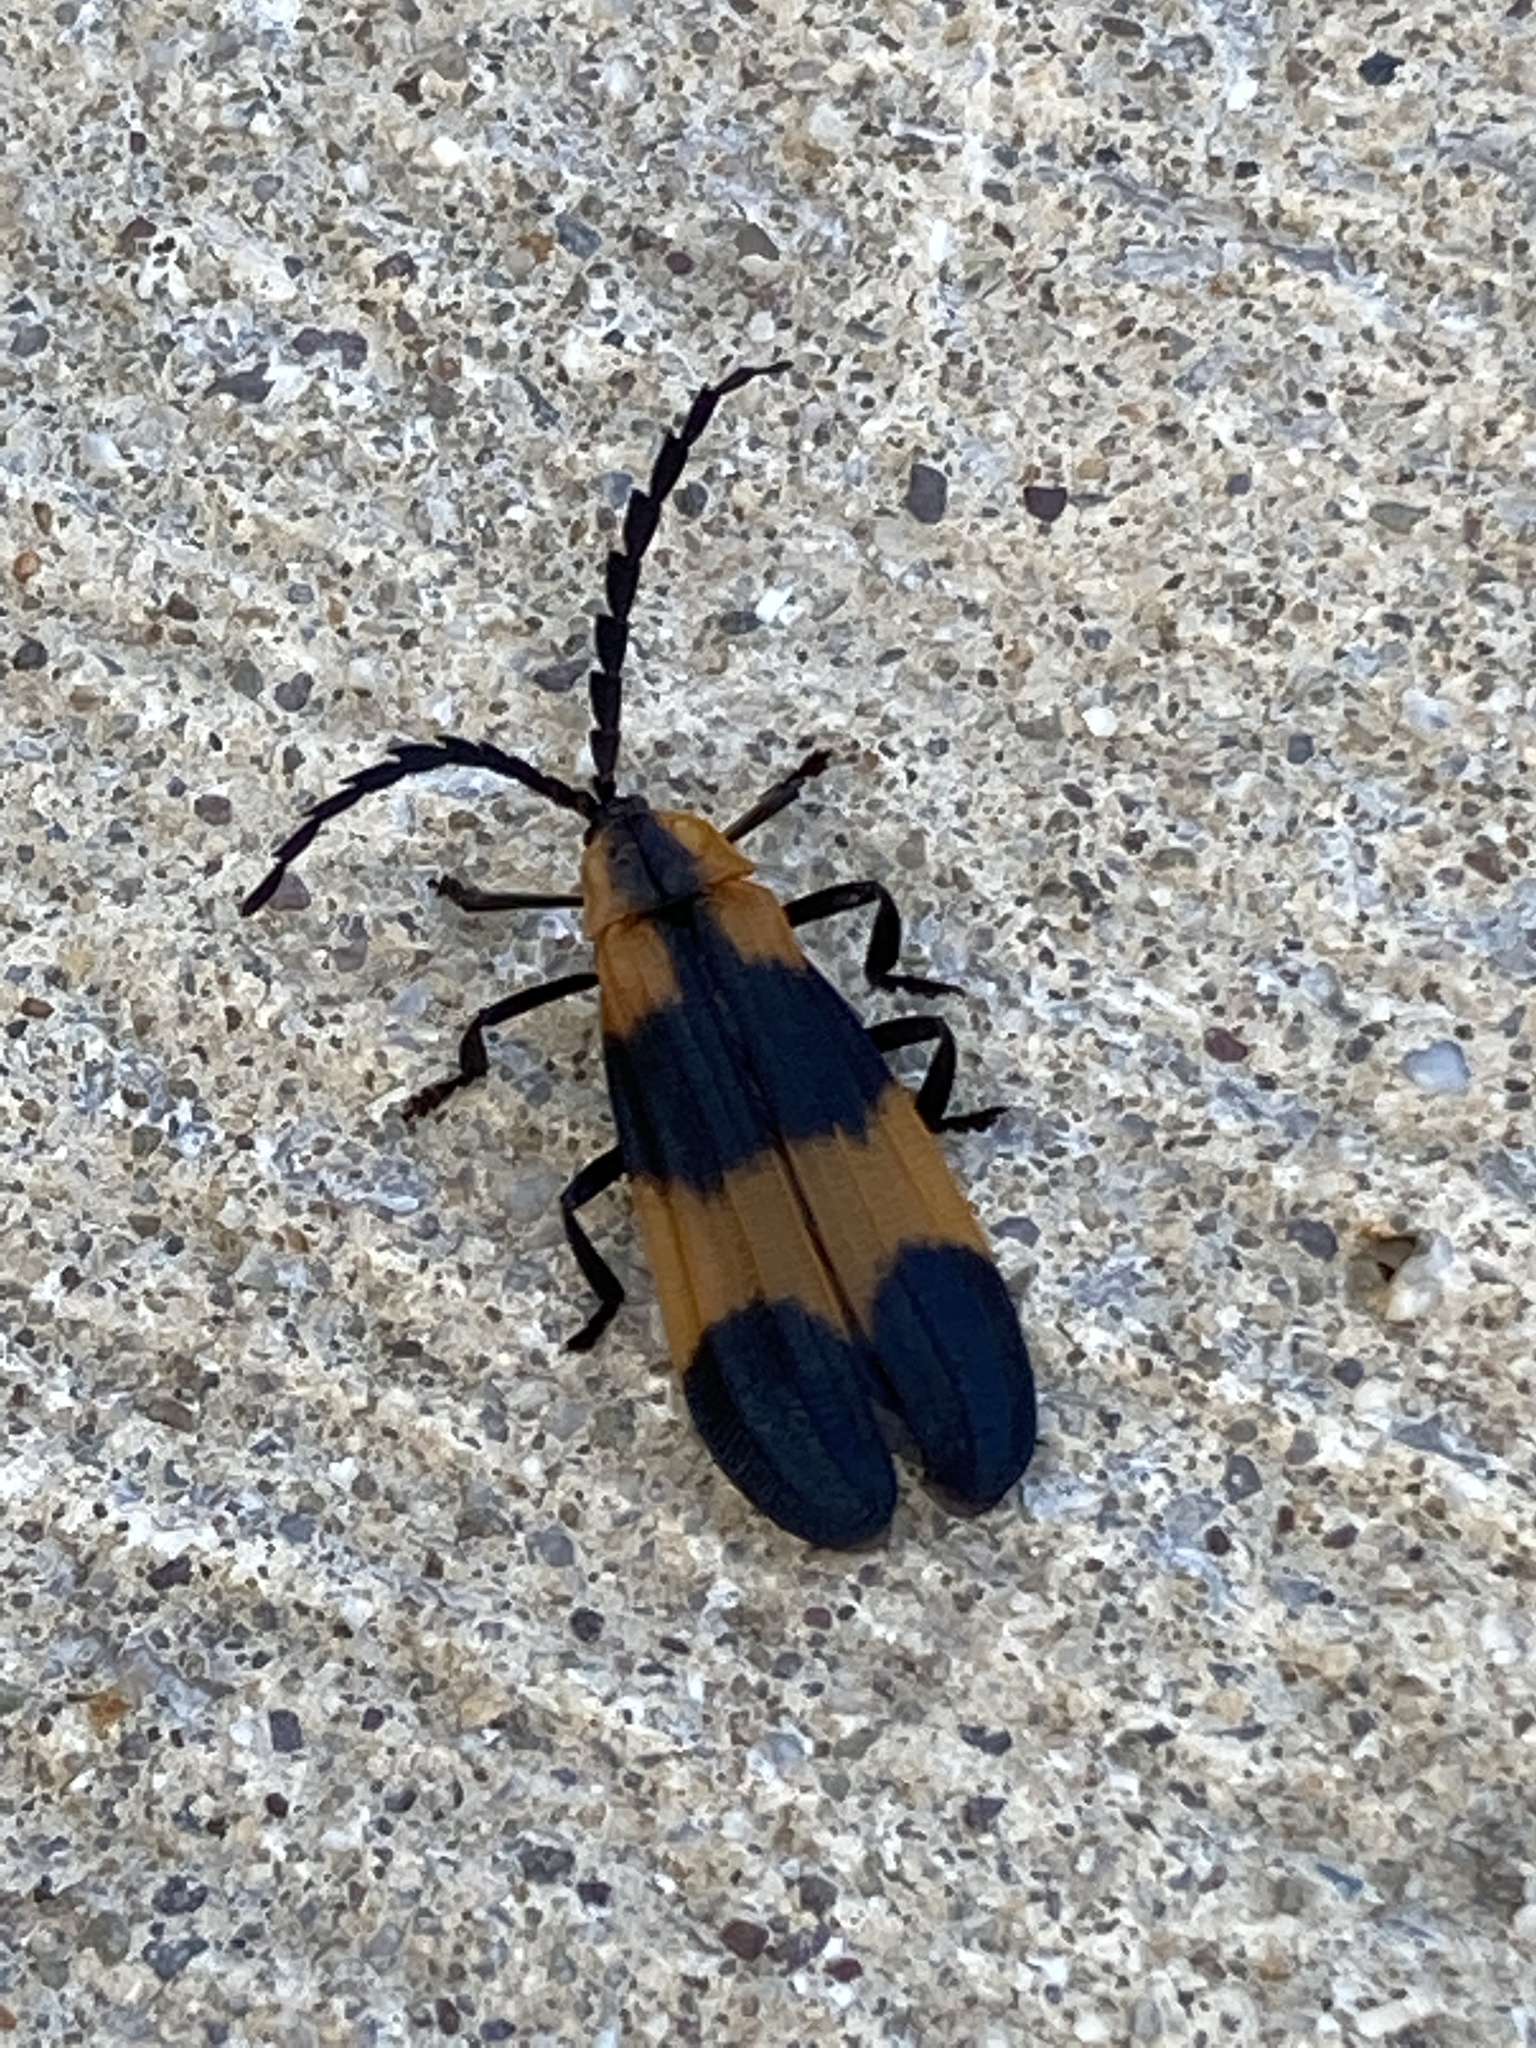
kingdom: Animalia
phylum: Arthropoda
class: Insecta
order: Coleoptera
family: Lycidae
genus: Calopteron
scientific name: Calopteron reticulatum
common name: Banded net-winged beetle
